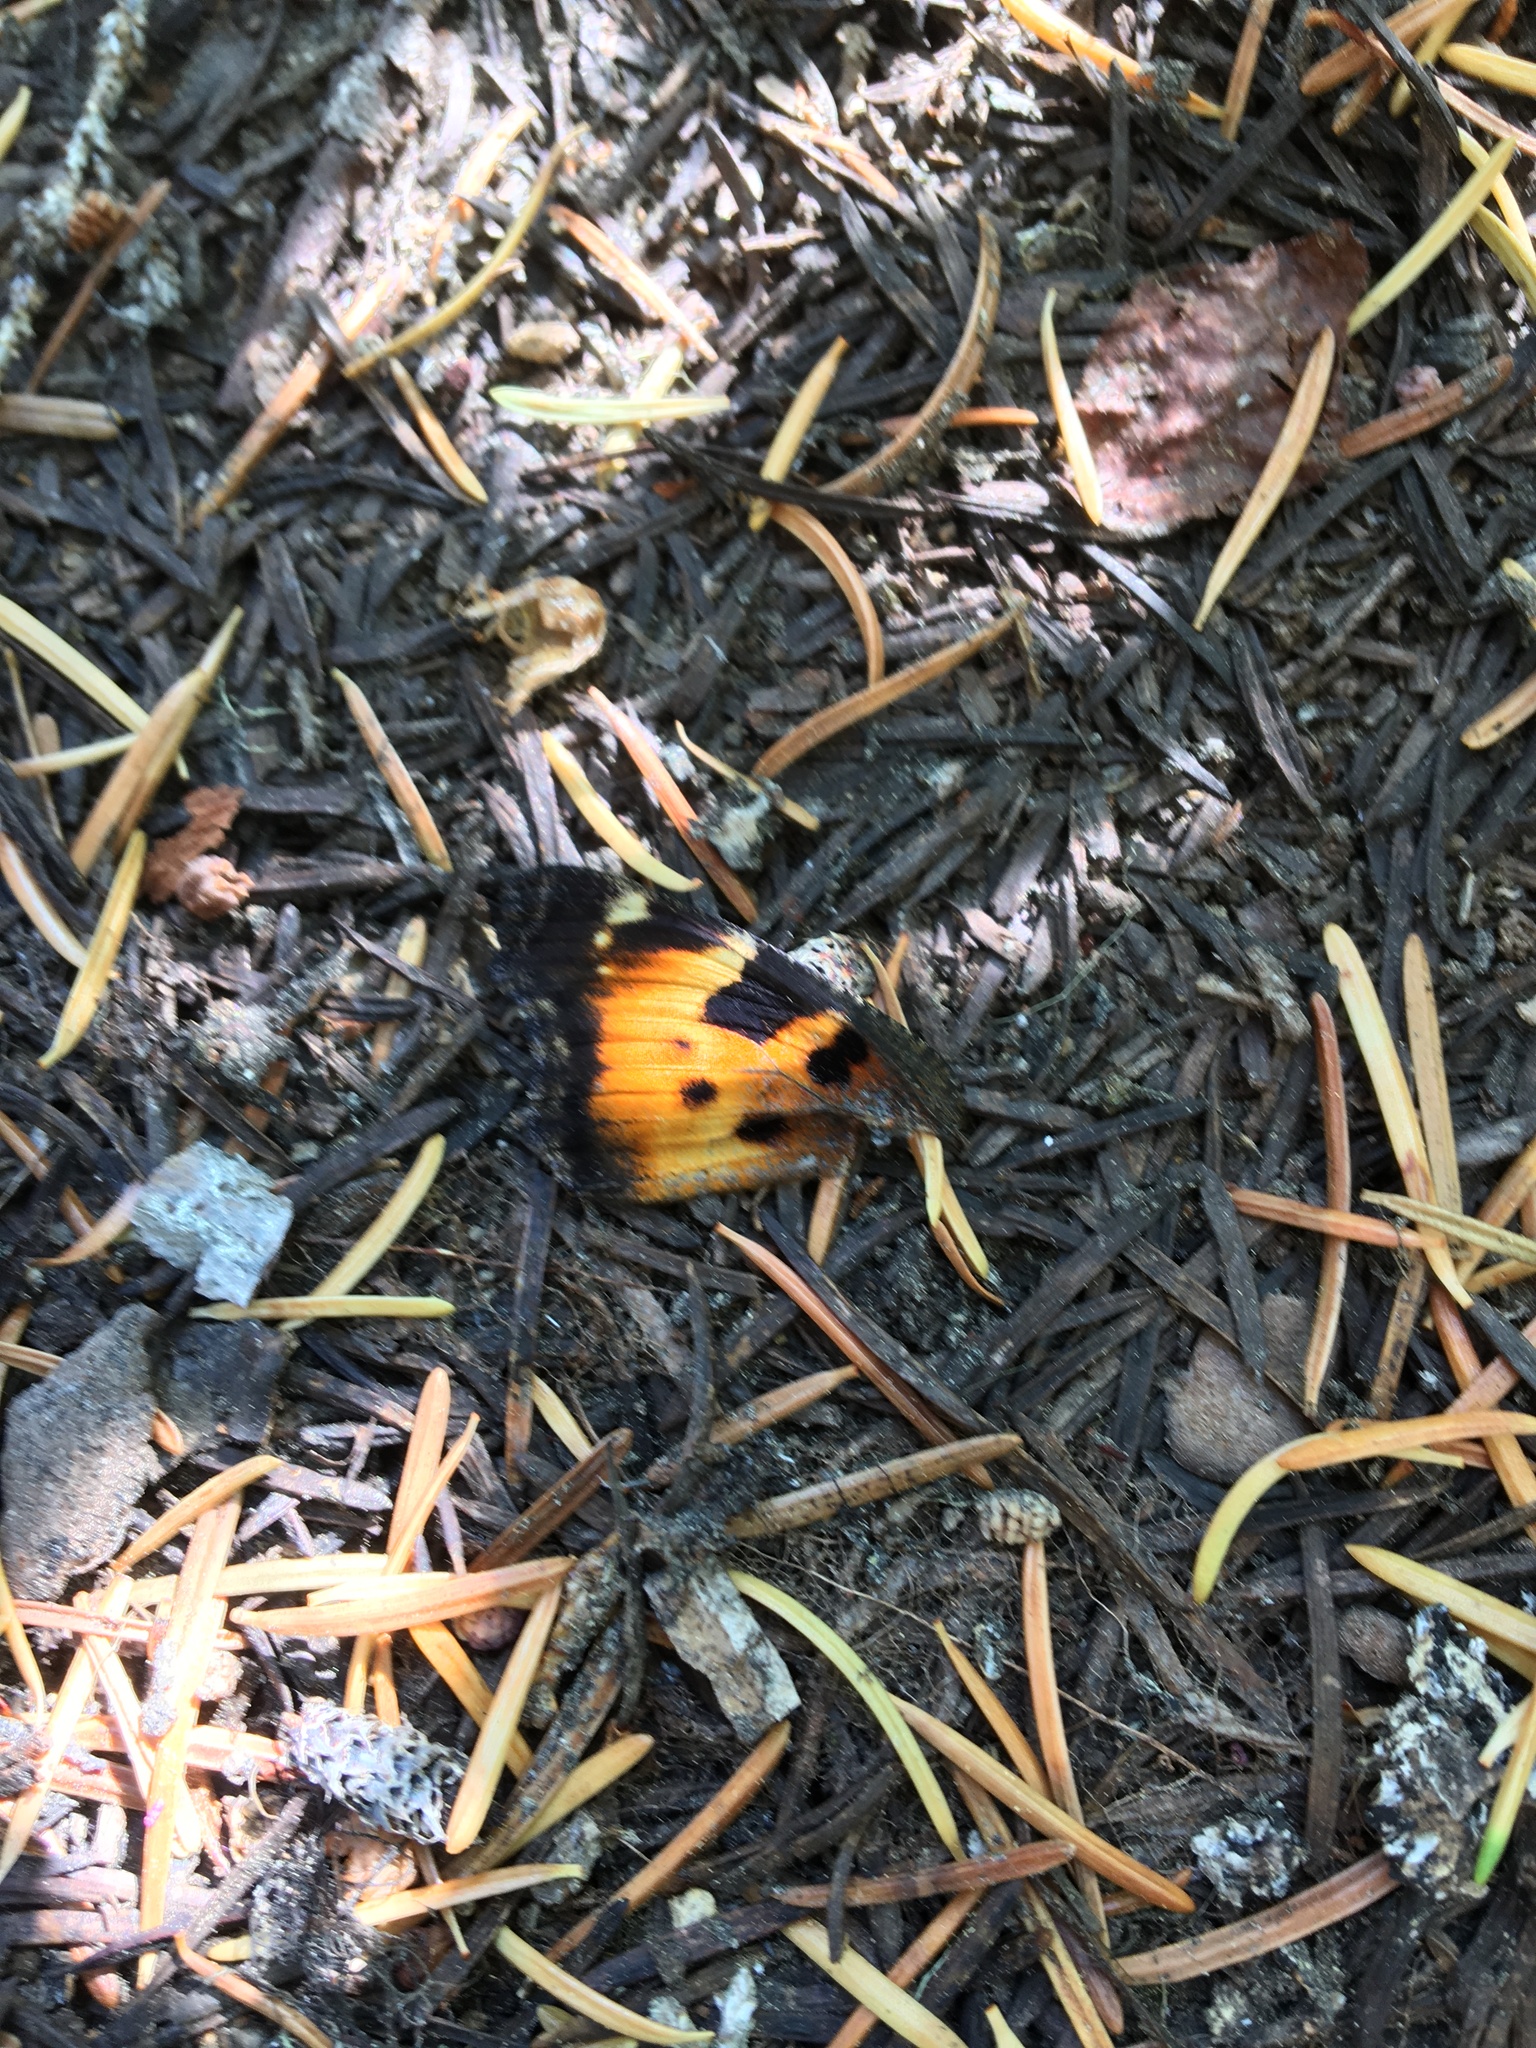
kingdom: Animalia
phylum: Arthropoda
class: Insecta
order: Lepidoptera
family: Nymphalidae
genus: Nymphalis
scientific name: Nymphalis californica
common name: California tortoiseshell
